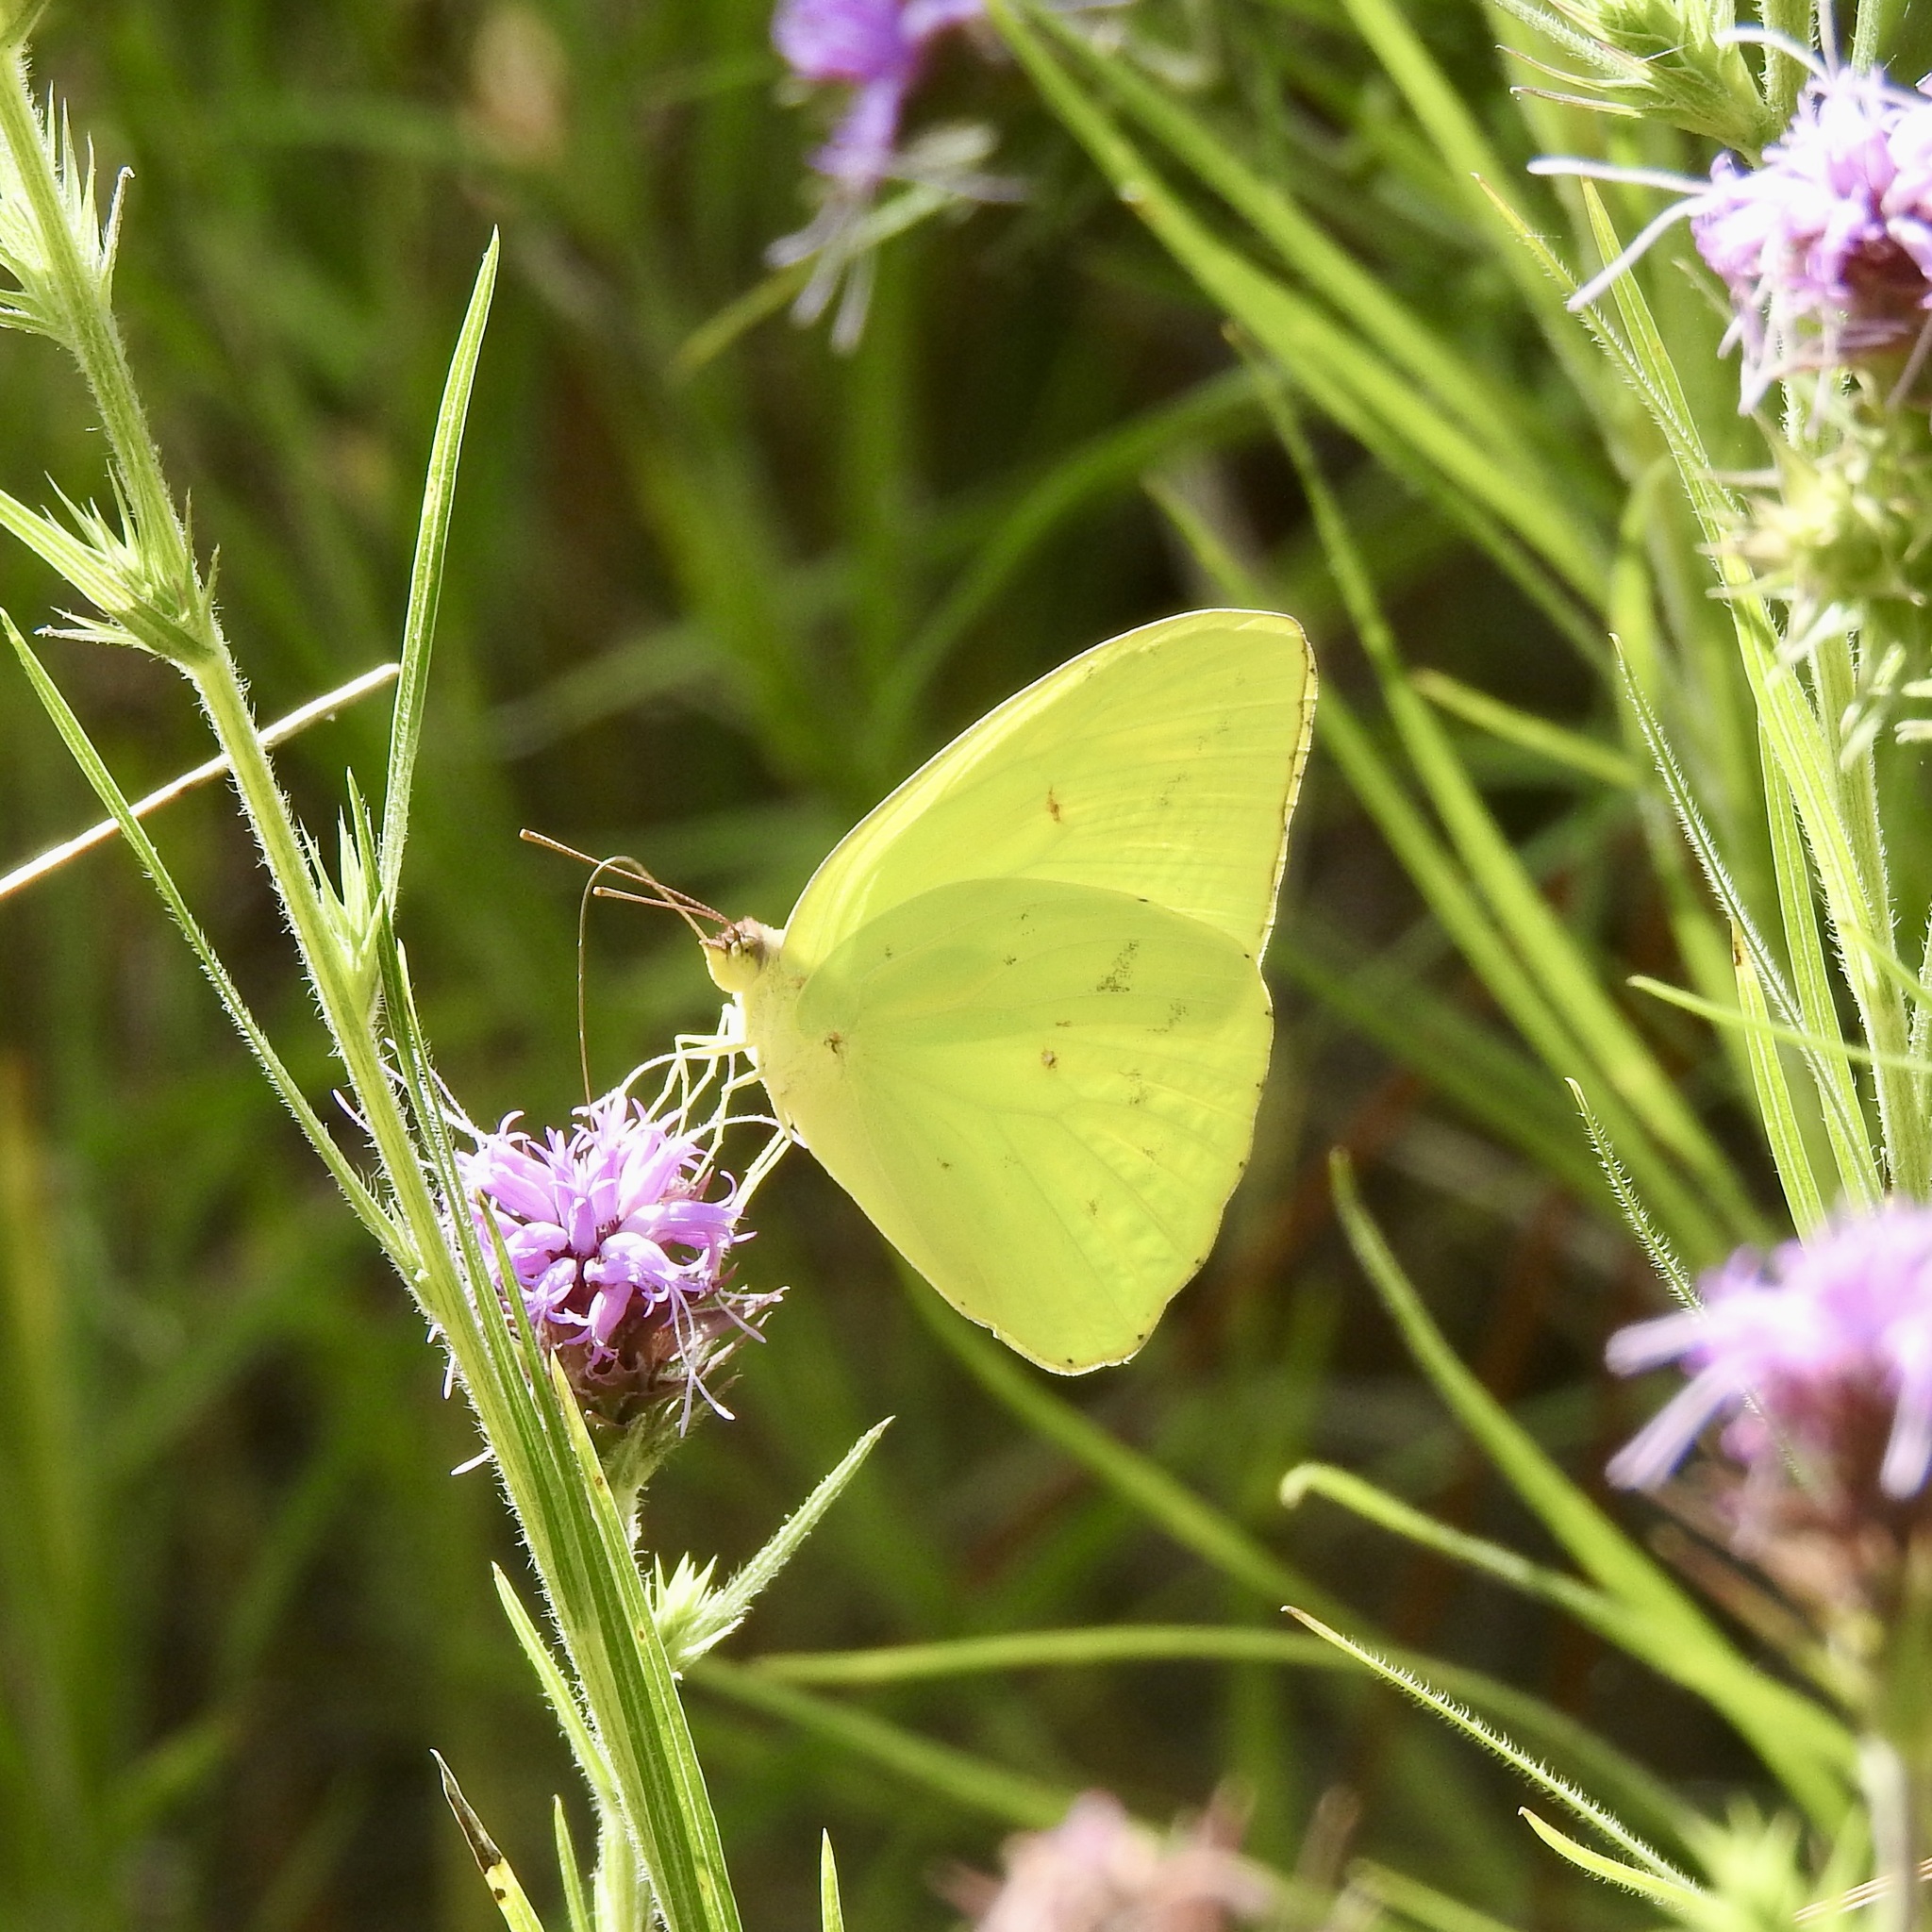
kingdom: Animalia
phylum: Arthropoda
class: Insecta
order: Lepidoptera
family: Pieridae
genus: Phoebis
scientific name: Phoebis sennae
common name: Cloudless sulphur
